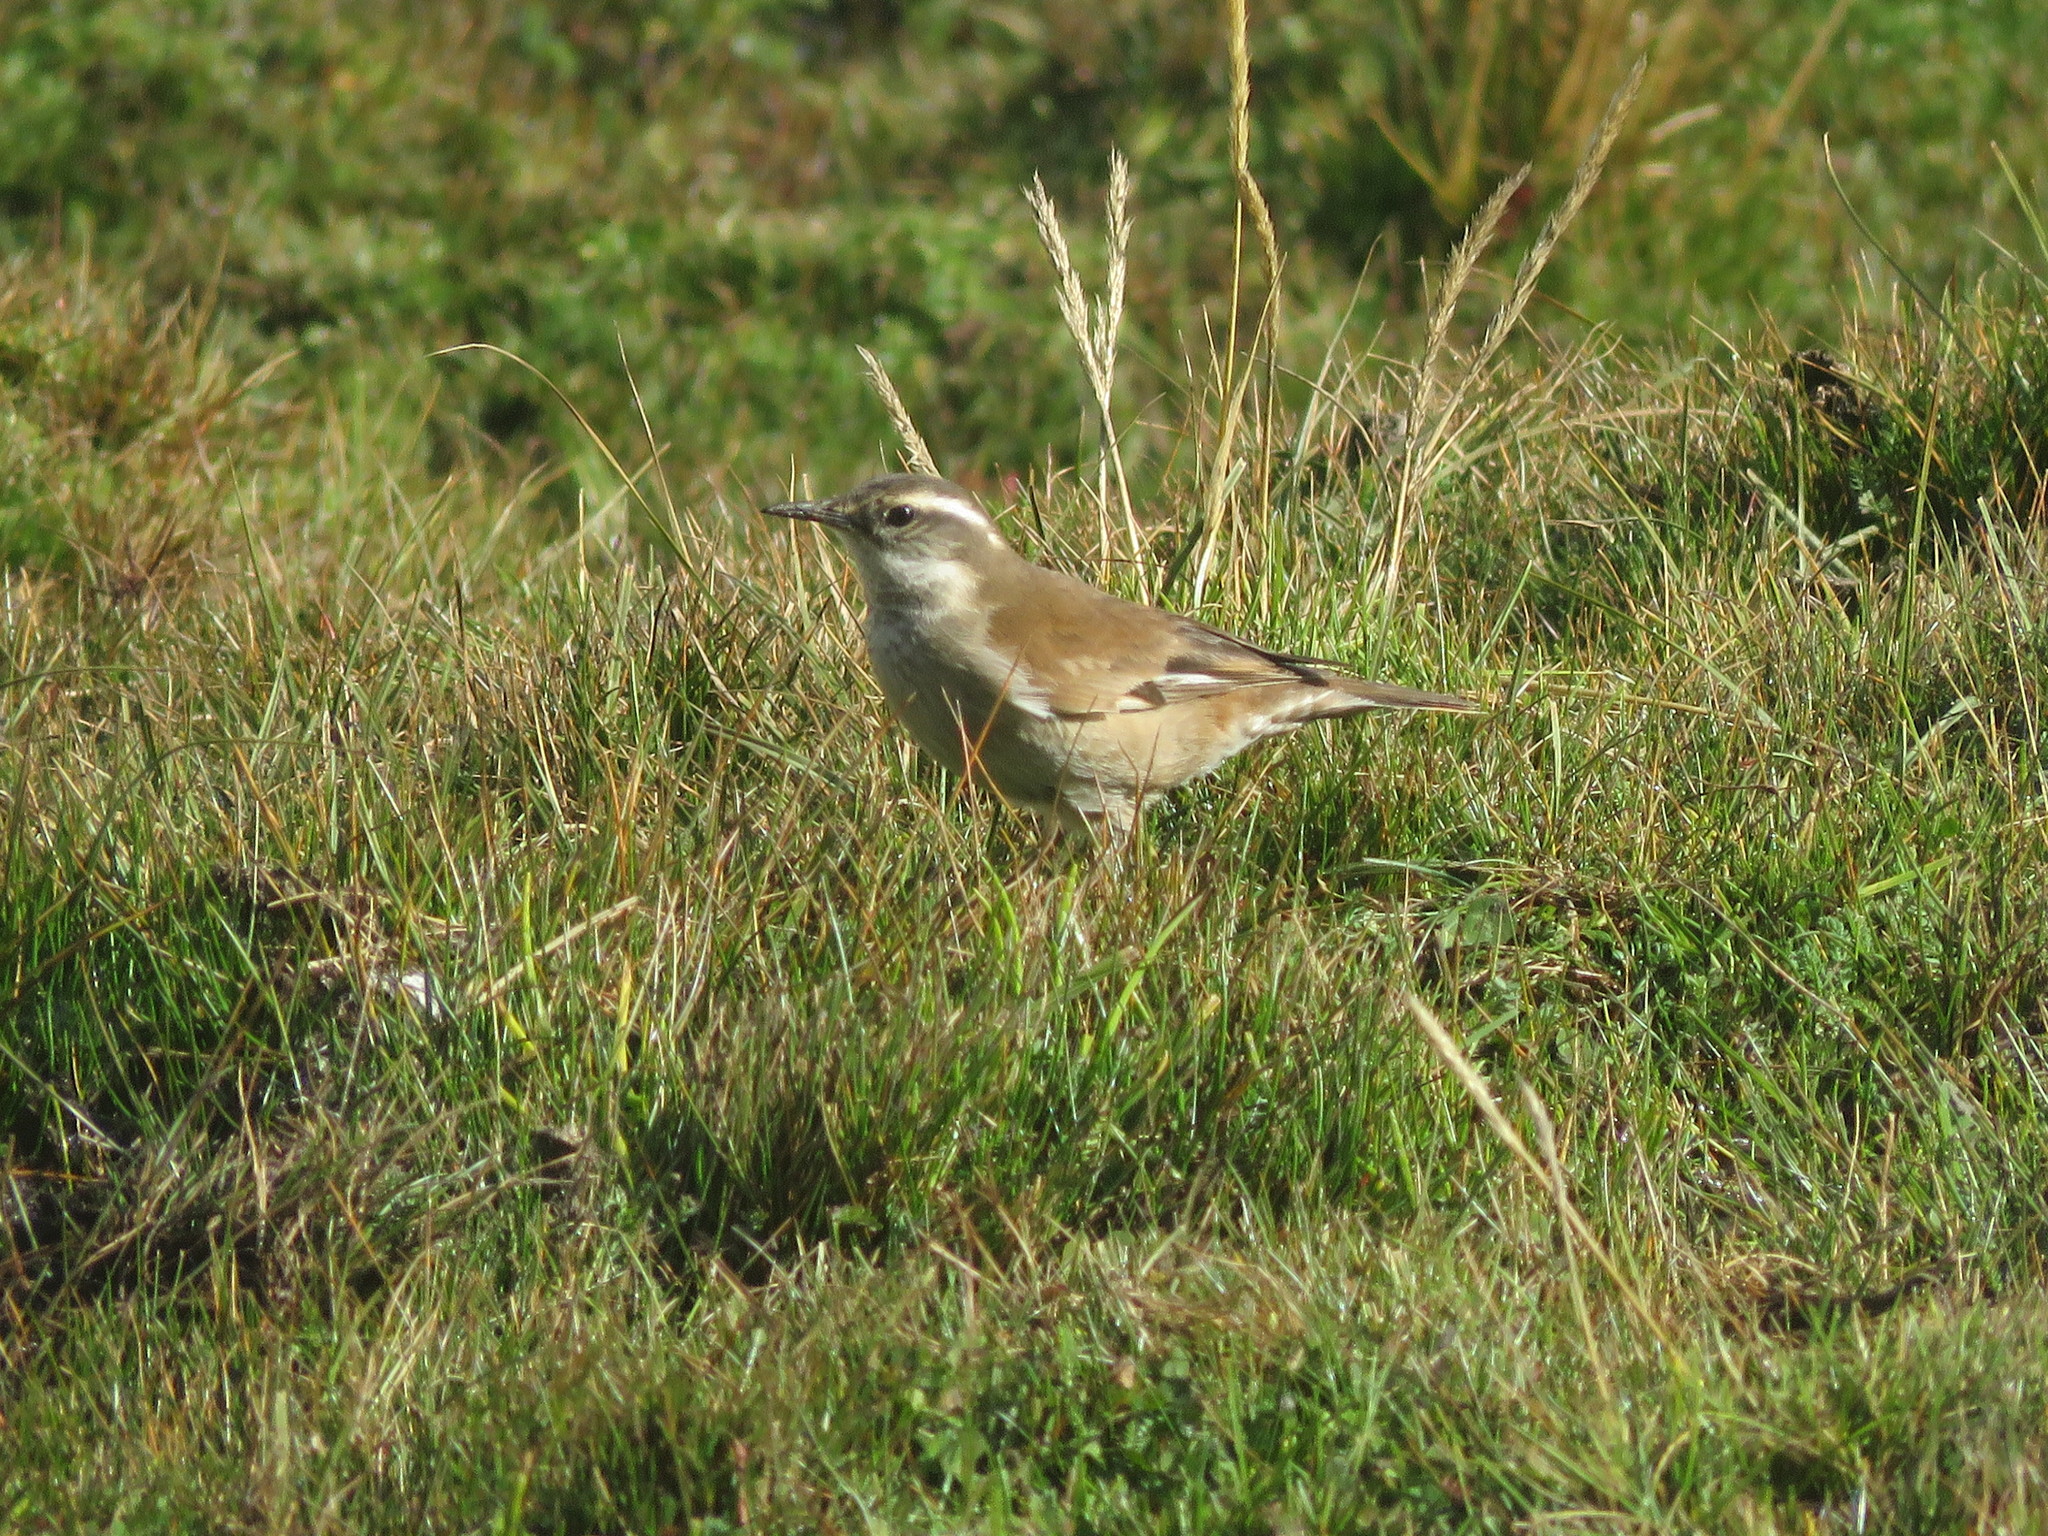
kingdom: Animalia
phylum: Chordata
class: Aves
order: Passeriformes
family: Furnariidae
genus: Cinclodes
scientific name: Cinclodes fuscus
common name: Buff-winged cinclodes
